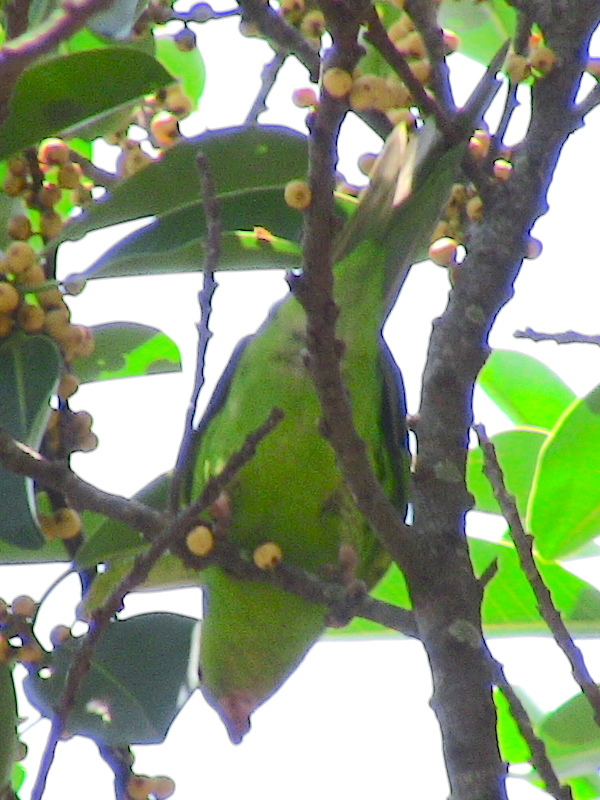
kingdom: Animalia
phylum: Chordata
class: Aves
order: Psittaciformes
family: Psittacidae
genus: Brotogeris
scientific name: Brotogeris chiriri
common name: Yellow-chevroned parakeet
